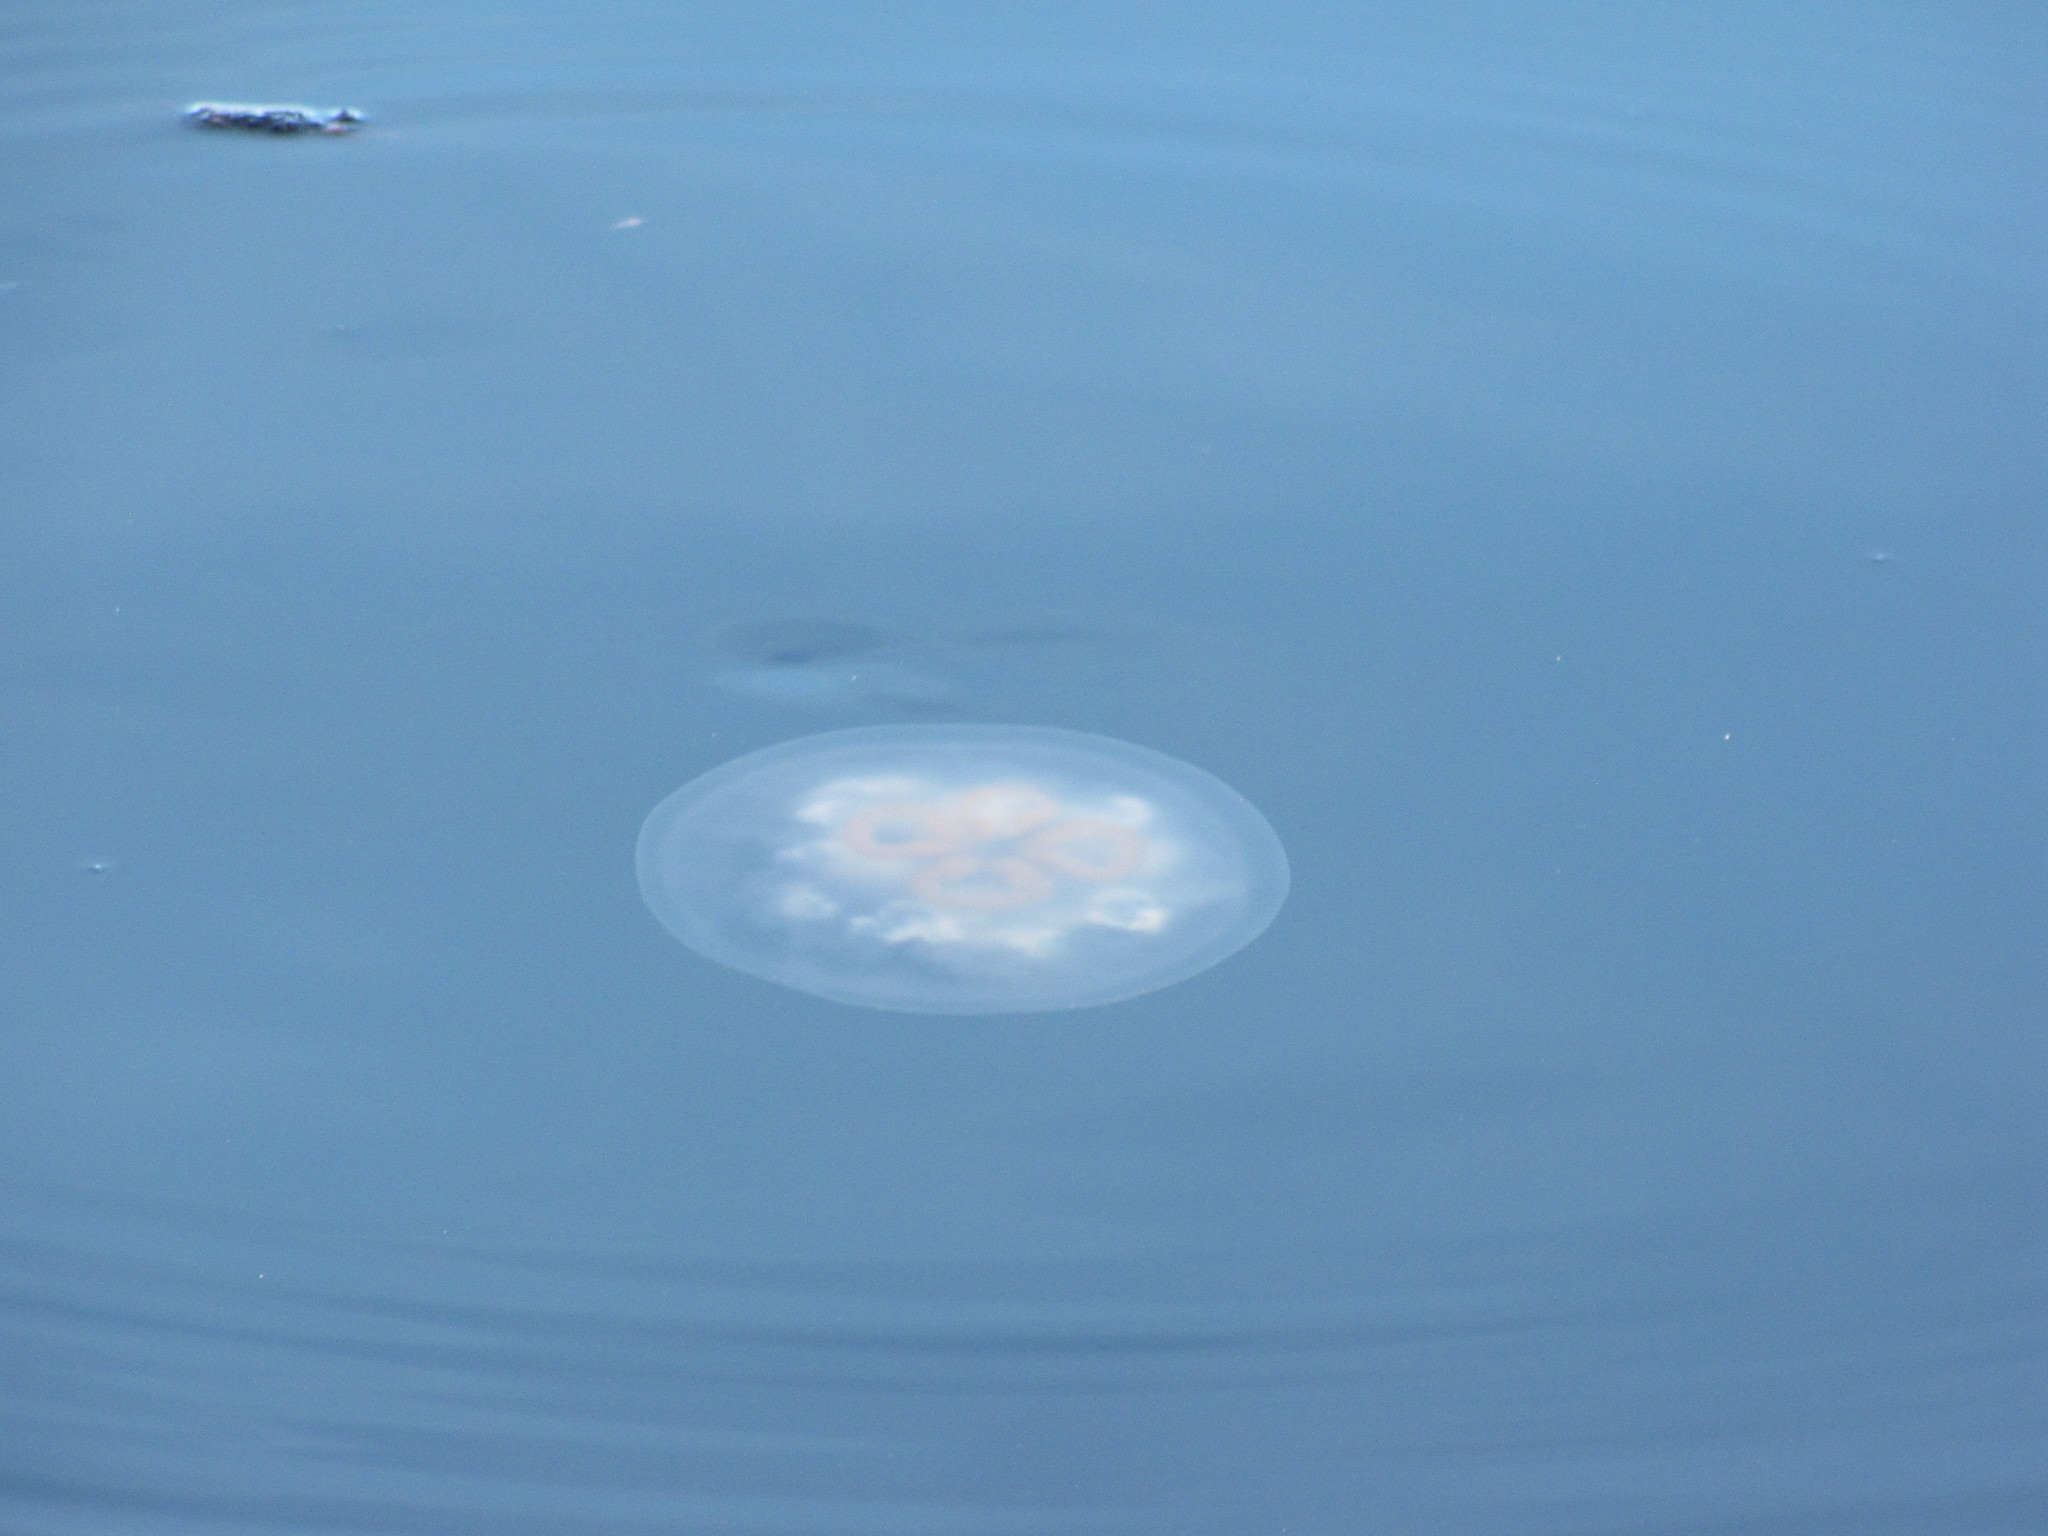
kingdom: Animalia
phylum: Cnidaria
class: Scyphozoa
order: Semaeostomeae
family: Ulmaridae
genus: Aurelia
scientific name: Aurelia labiata
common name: Pacific moon jelly
